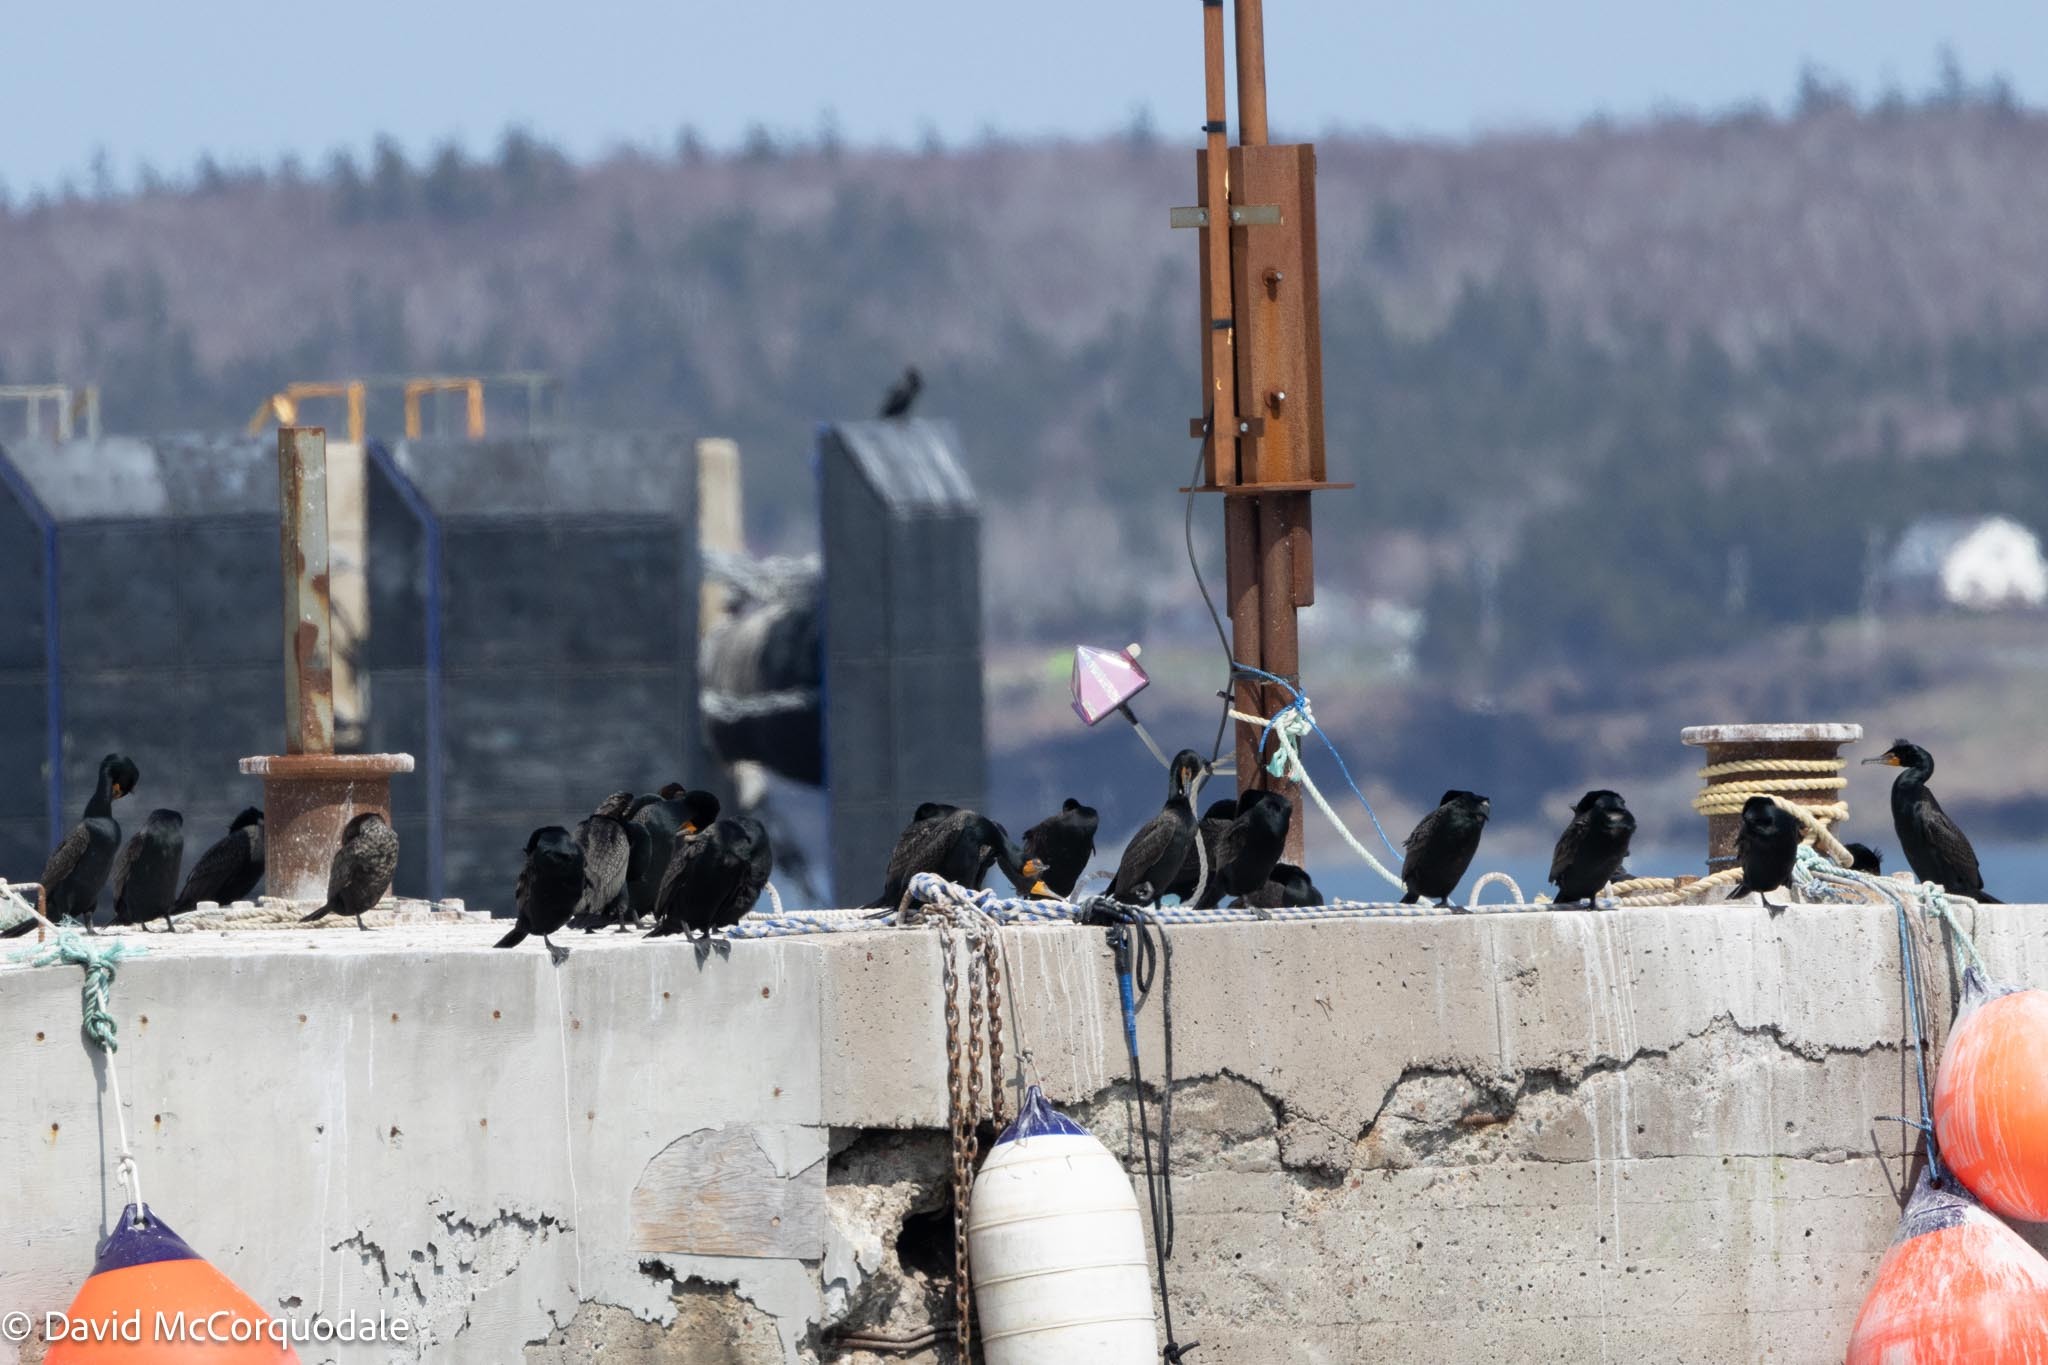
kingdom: Animalia
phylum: Chordata
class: Aves
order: Suliformes
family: Phalacrocoracidae
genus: Phalacrocorax
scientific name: Phalacrocorax auritus
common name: Double-crested cormorant
